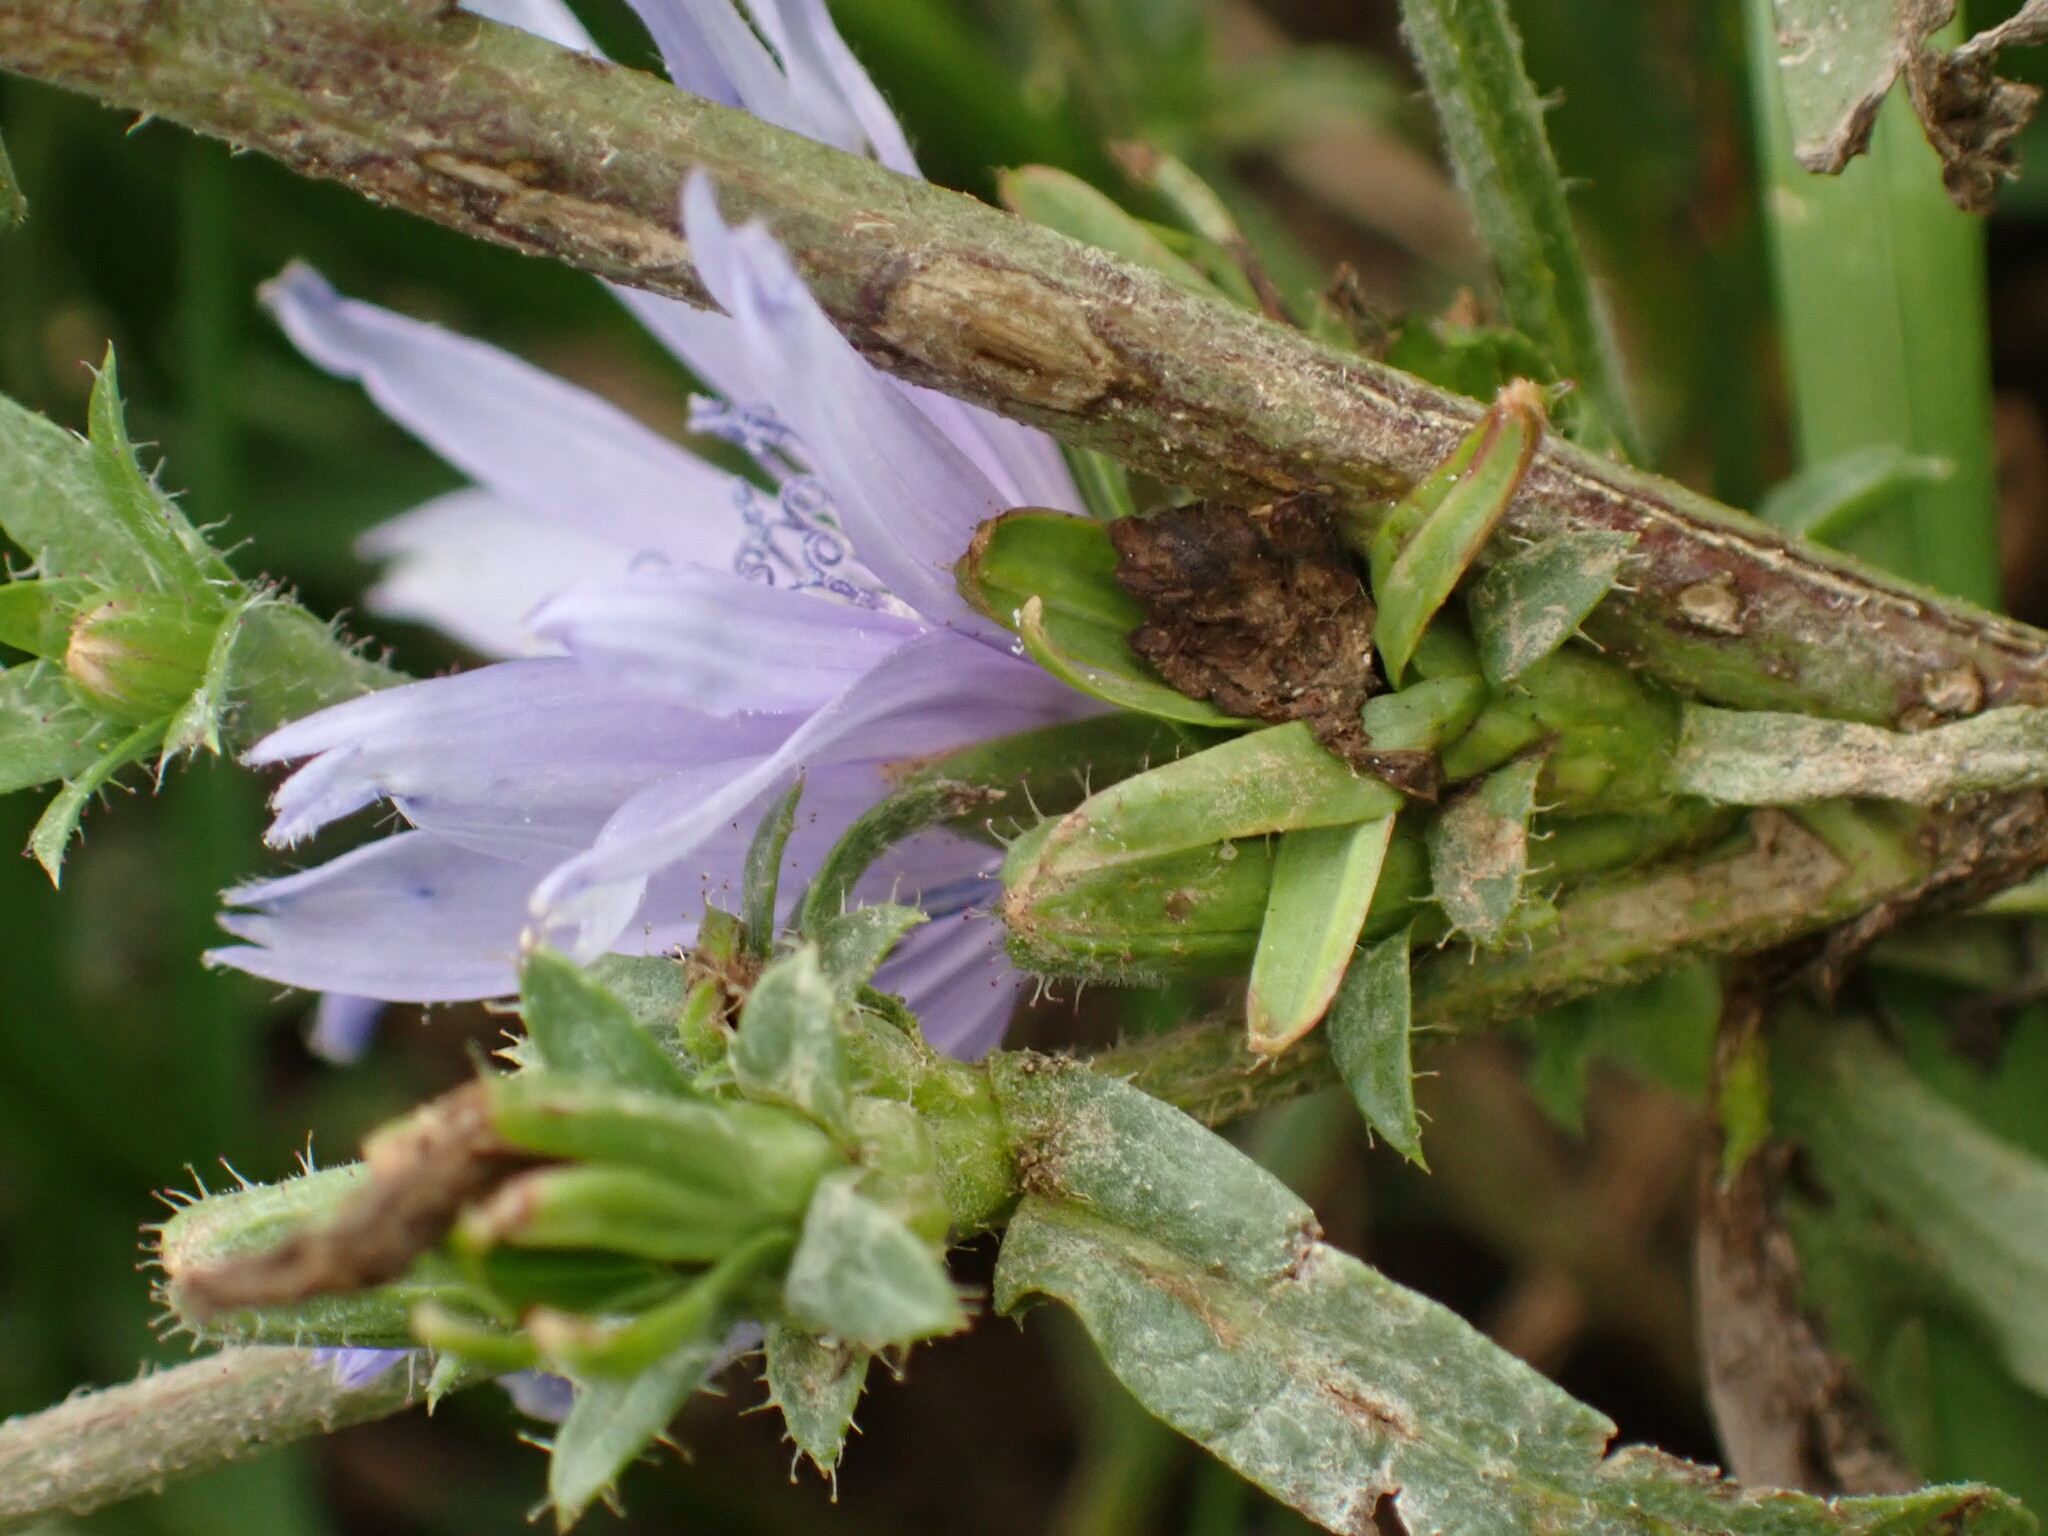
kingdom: Plantae
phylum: Tracheophyta
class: Magnoliopsida
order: Asterales
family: Asteraceae
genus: Cichorium
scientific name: Cichorium intybus
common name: Chicory
